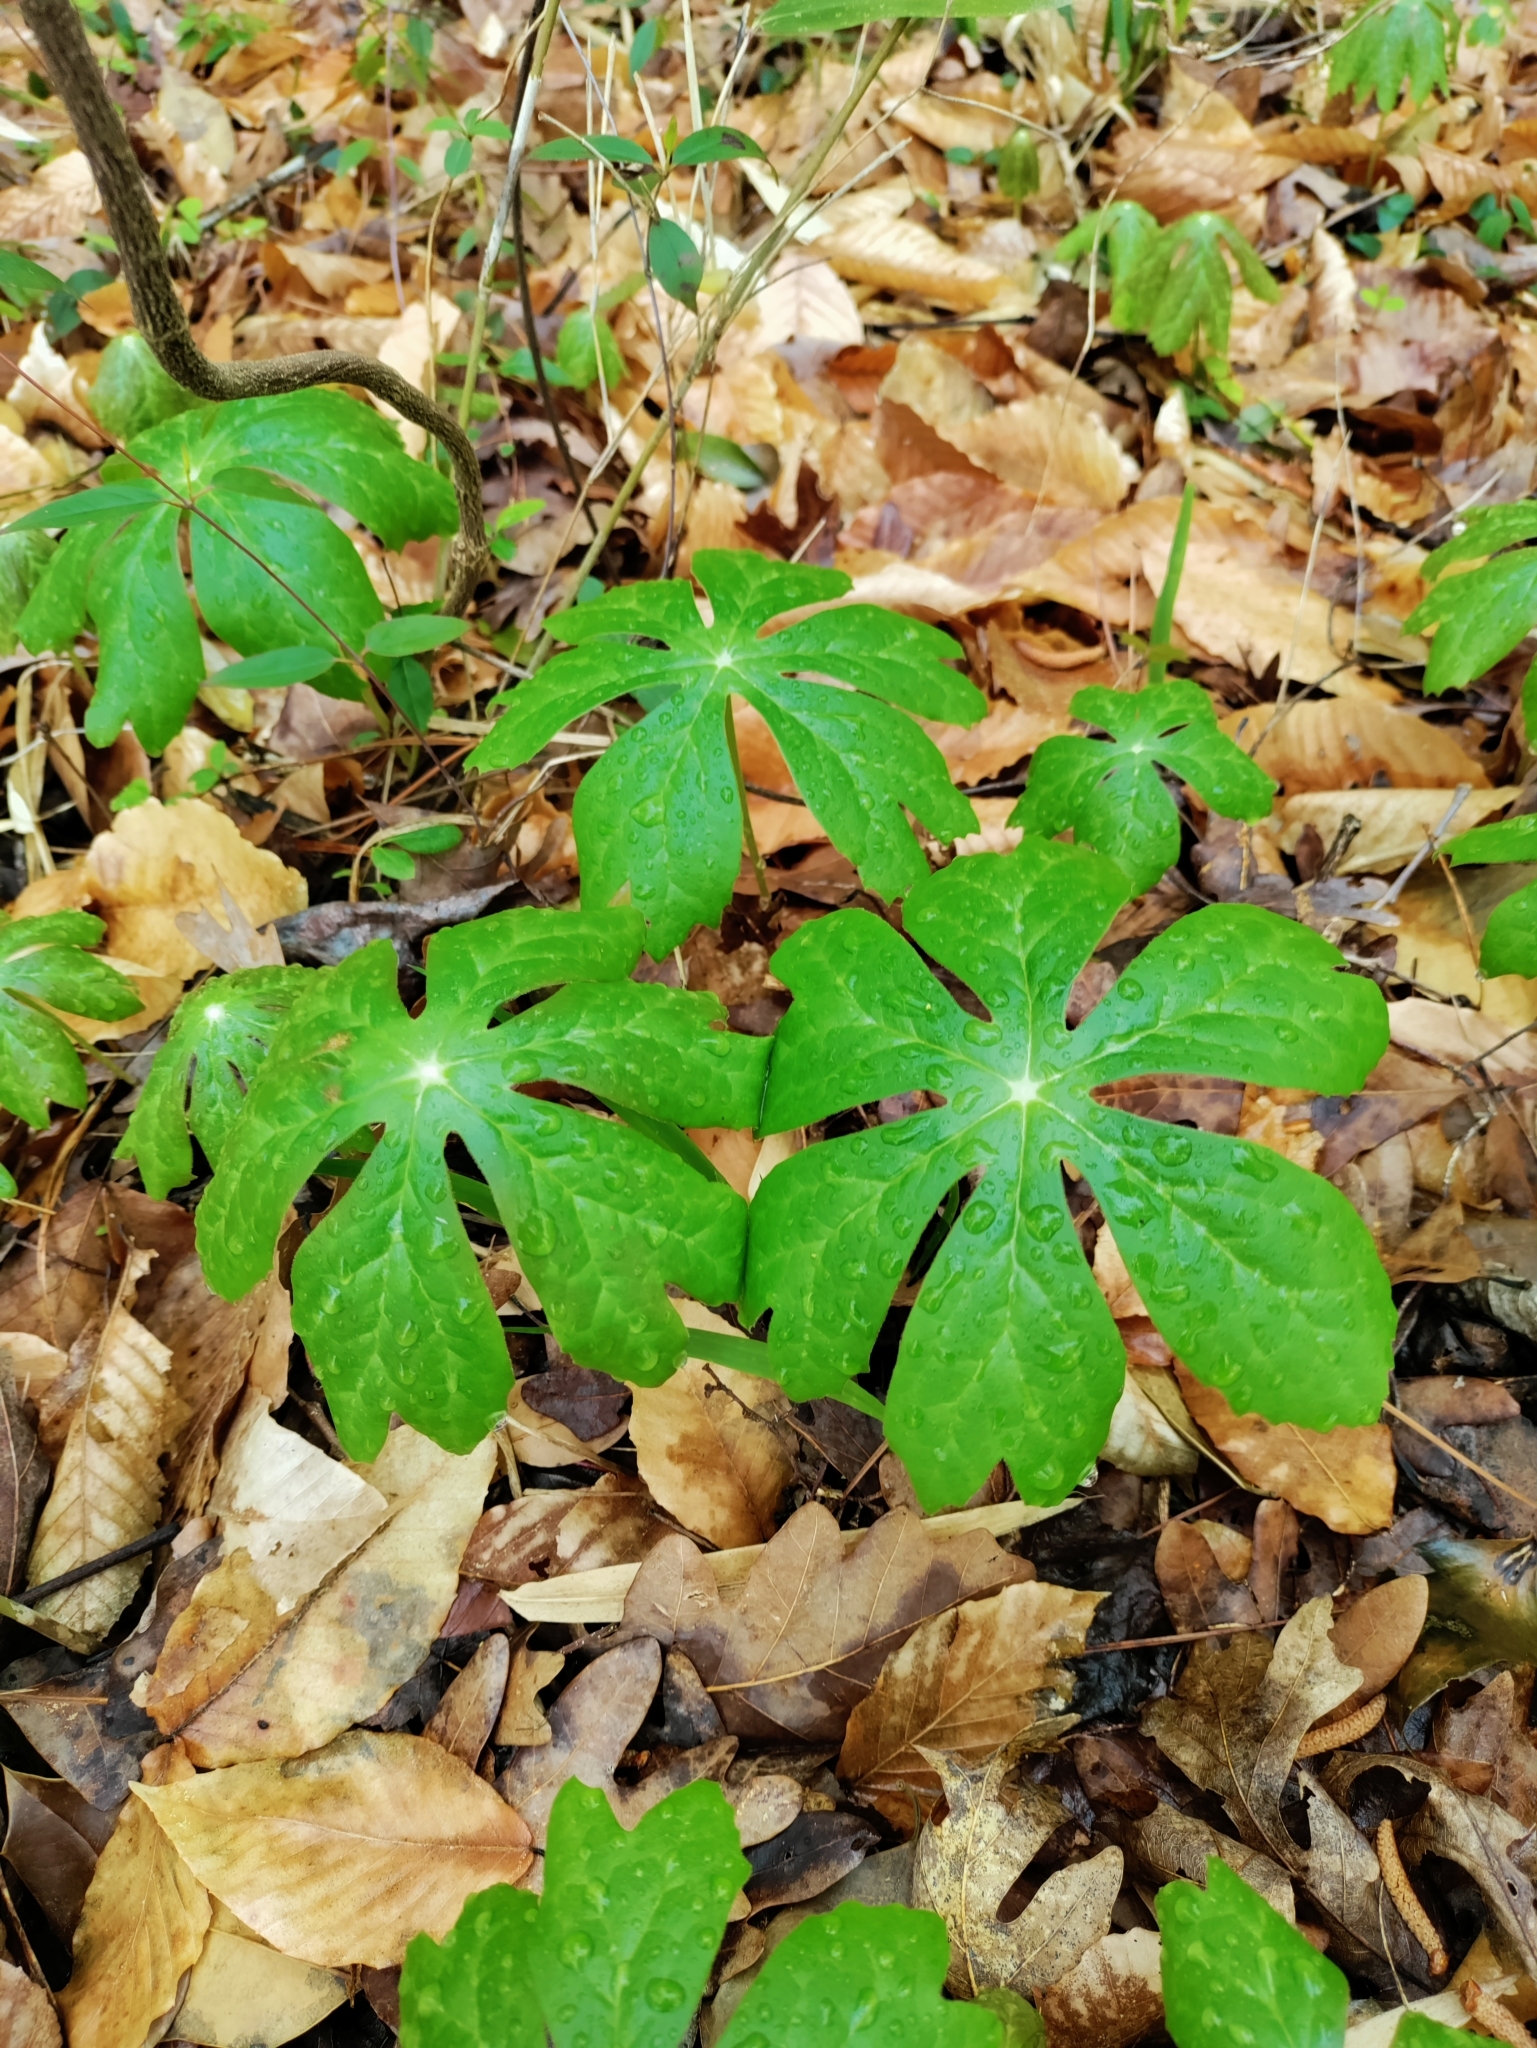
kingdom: Plantae
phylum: Tracheophyta
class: Magnoliopsida
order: Ranunculales
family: Berberidaceae
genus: Podophyllum
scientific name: Podophyllum peltatum
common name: Wild mandrake
